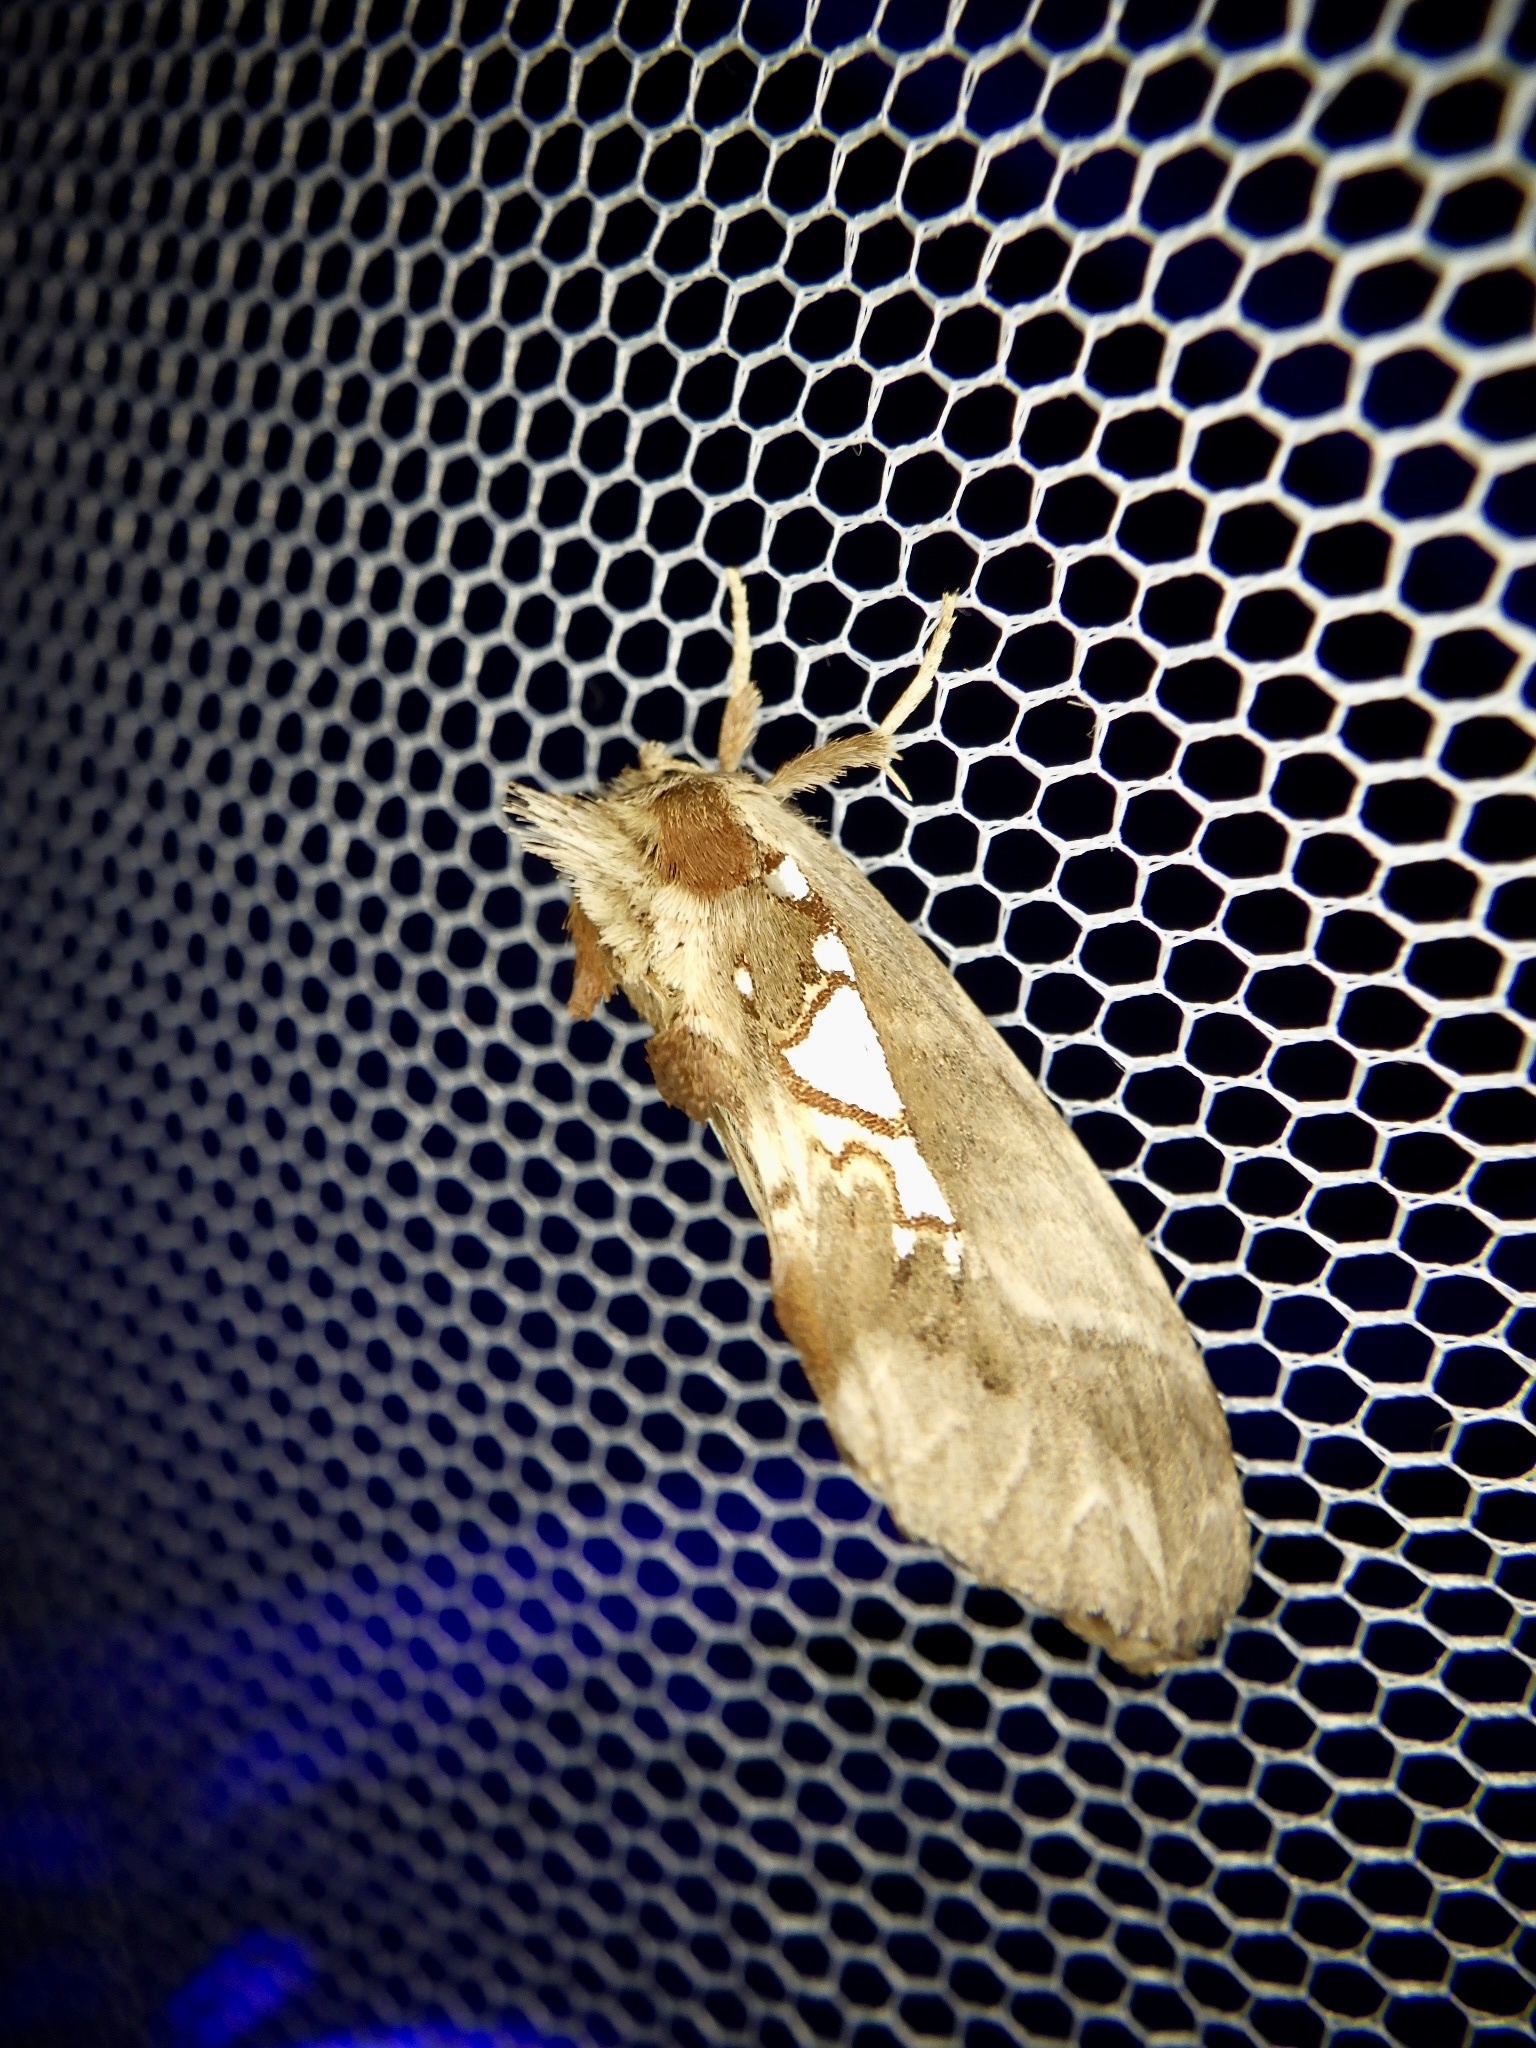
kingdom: Animalia
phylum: Arthropoda
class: Insecta
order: Lepidoptera
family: Notodontidae
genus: Spatalia
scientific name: Spatalia doerriesi
